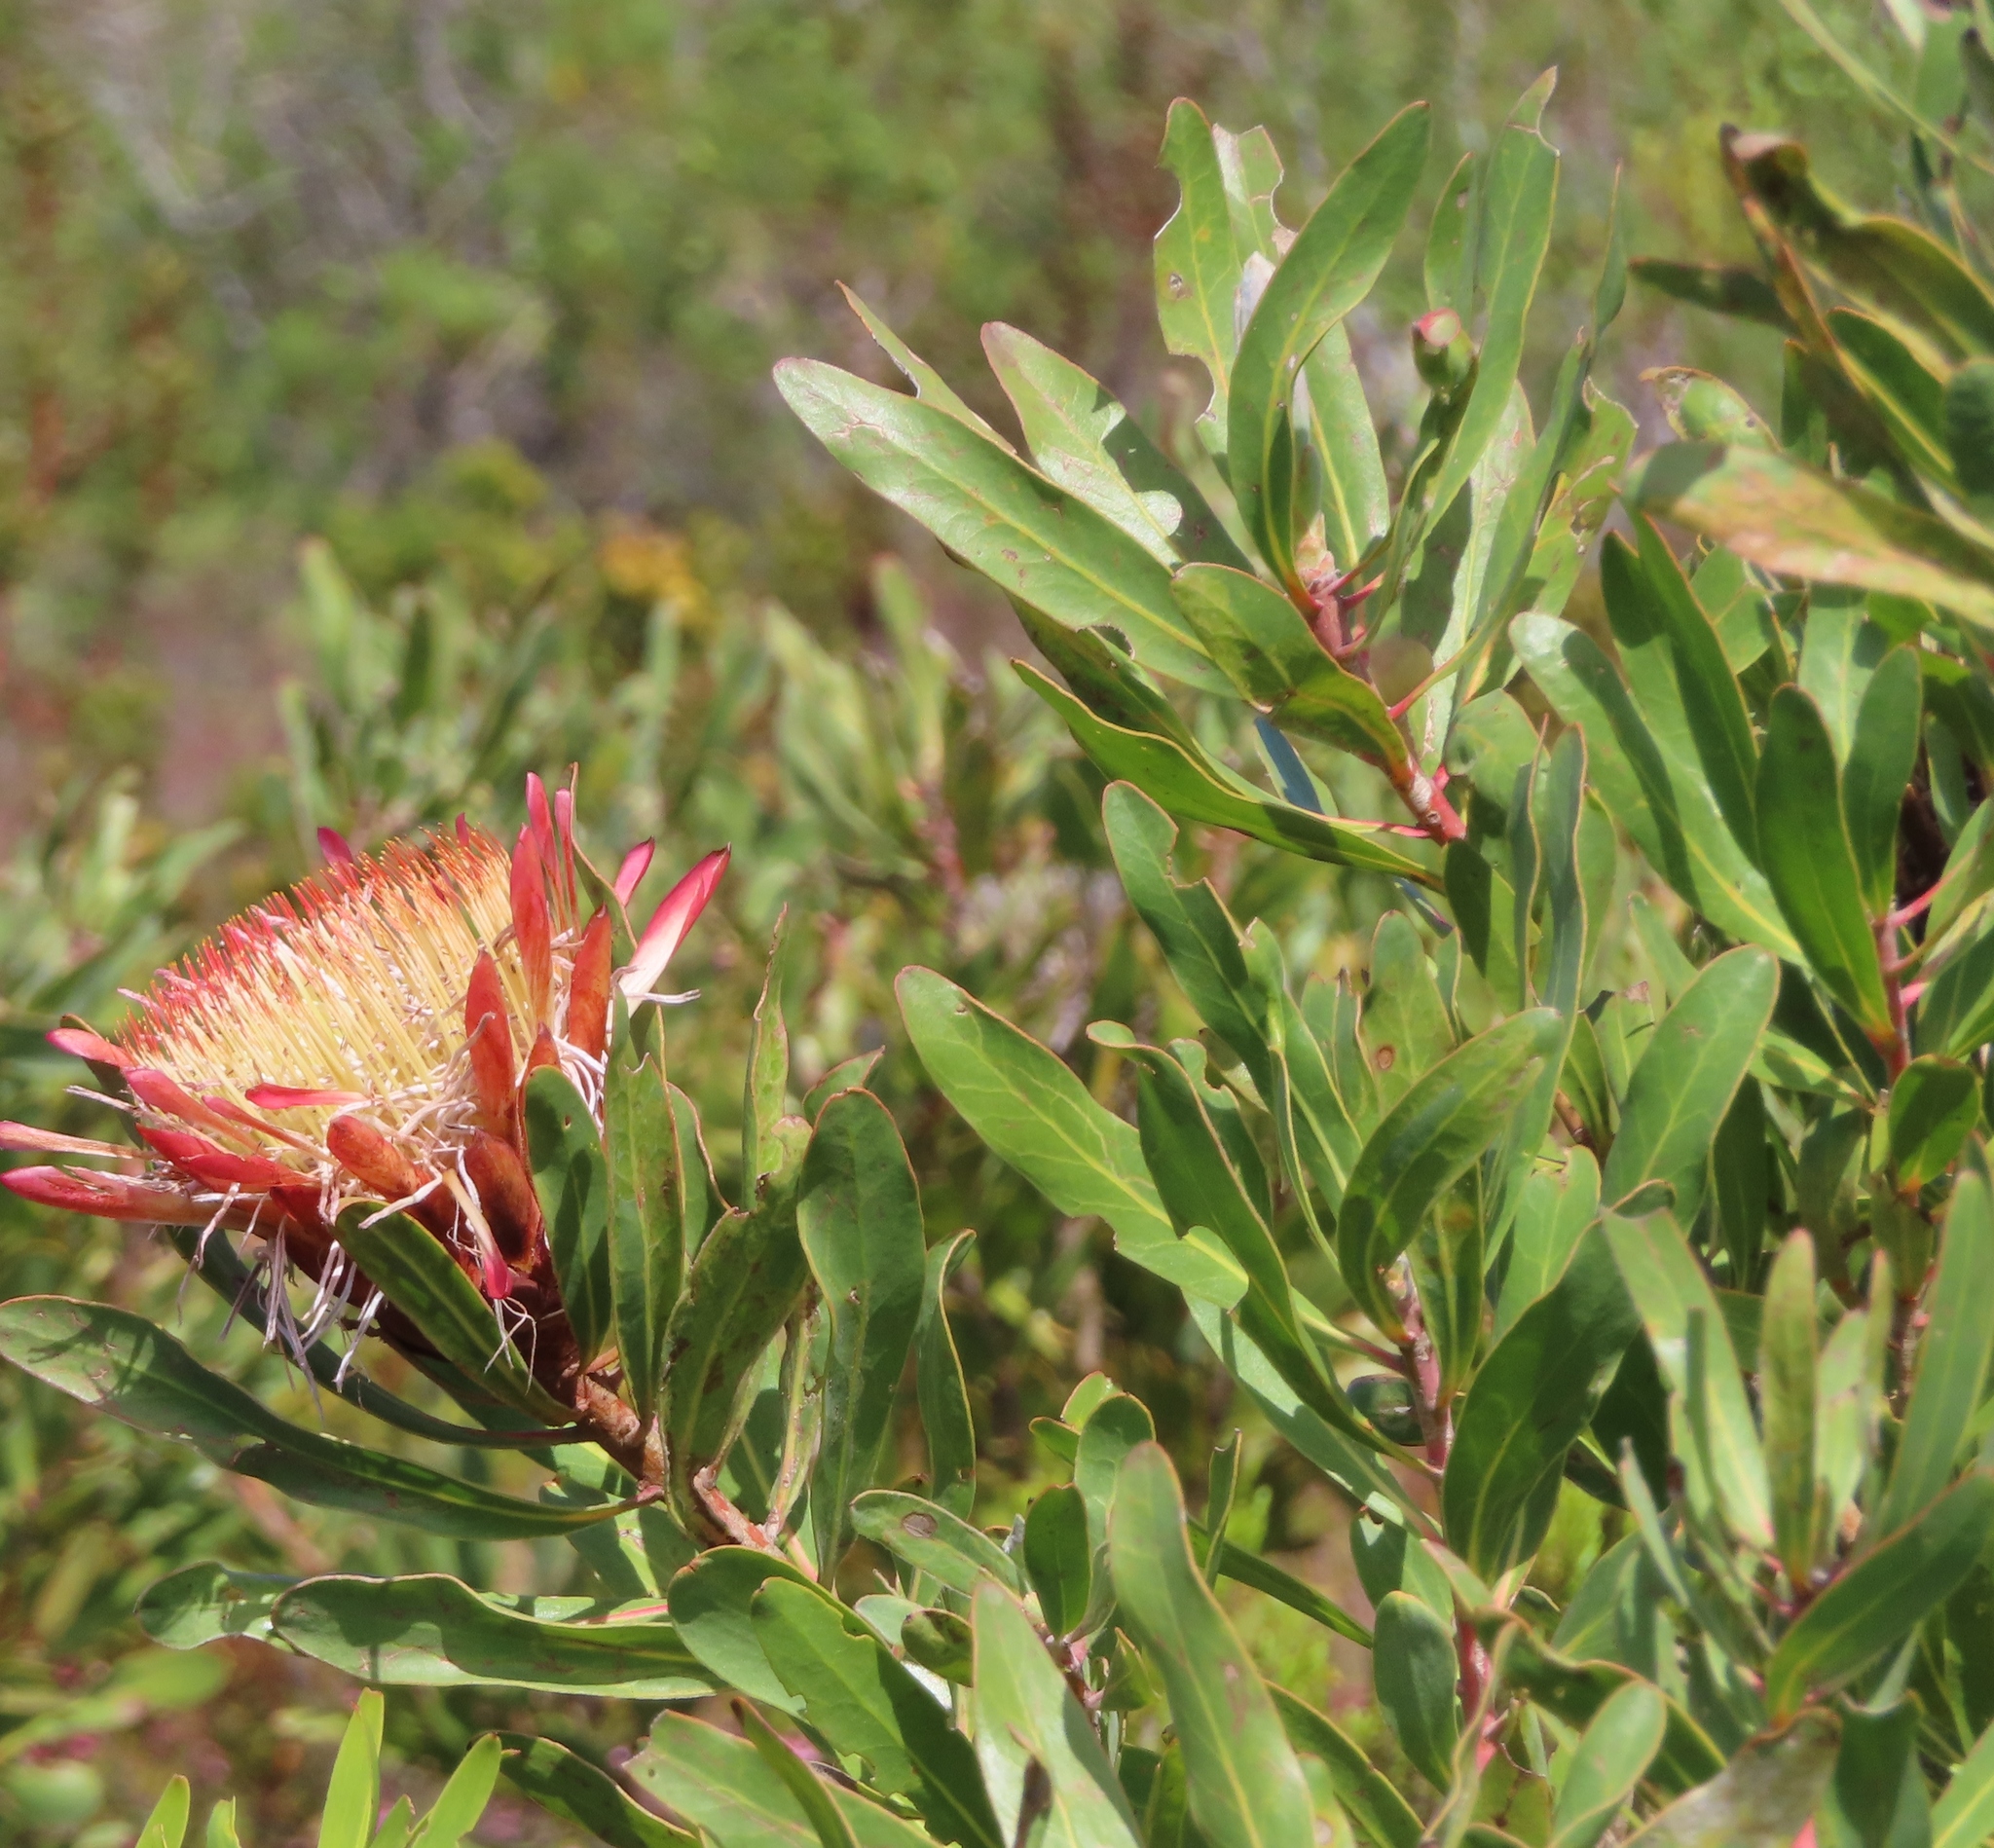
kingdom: Plantae
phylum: Tracheophyta
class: Magnoliopsida
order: Proteales
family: Proteaceae
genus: Protea
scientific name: Protea susannae
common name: Foetid-leaf sugarbush
